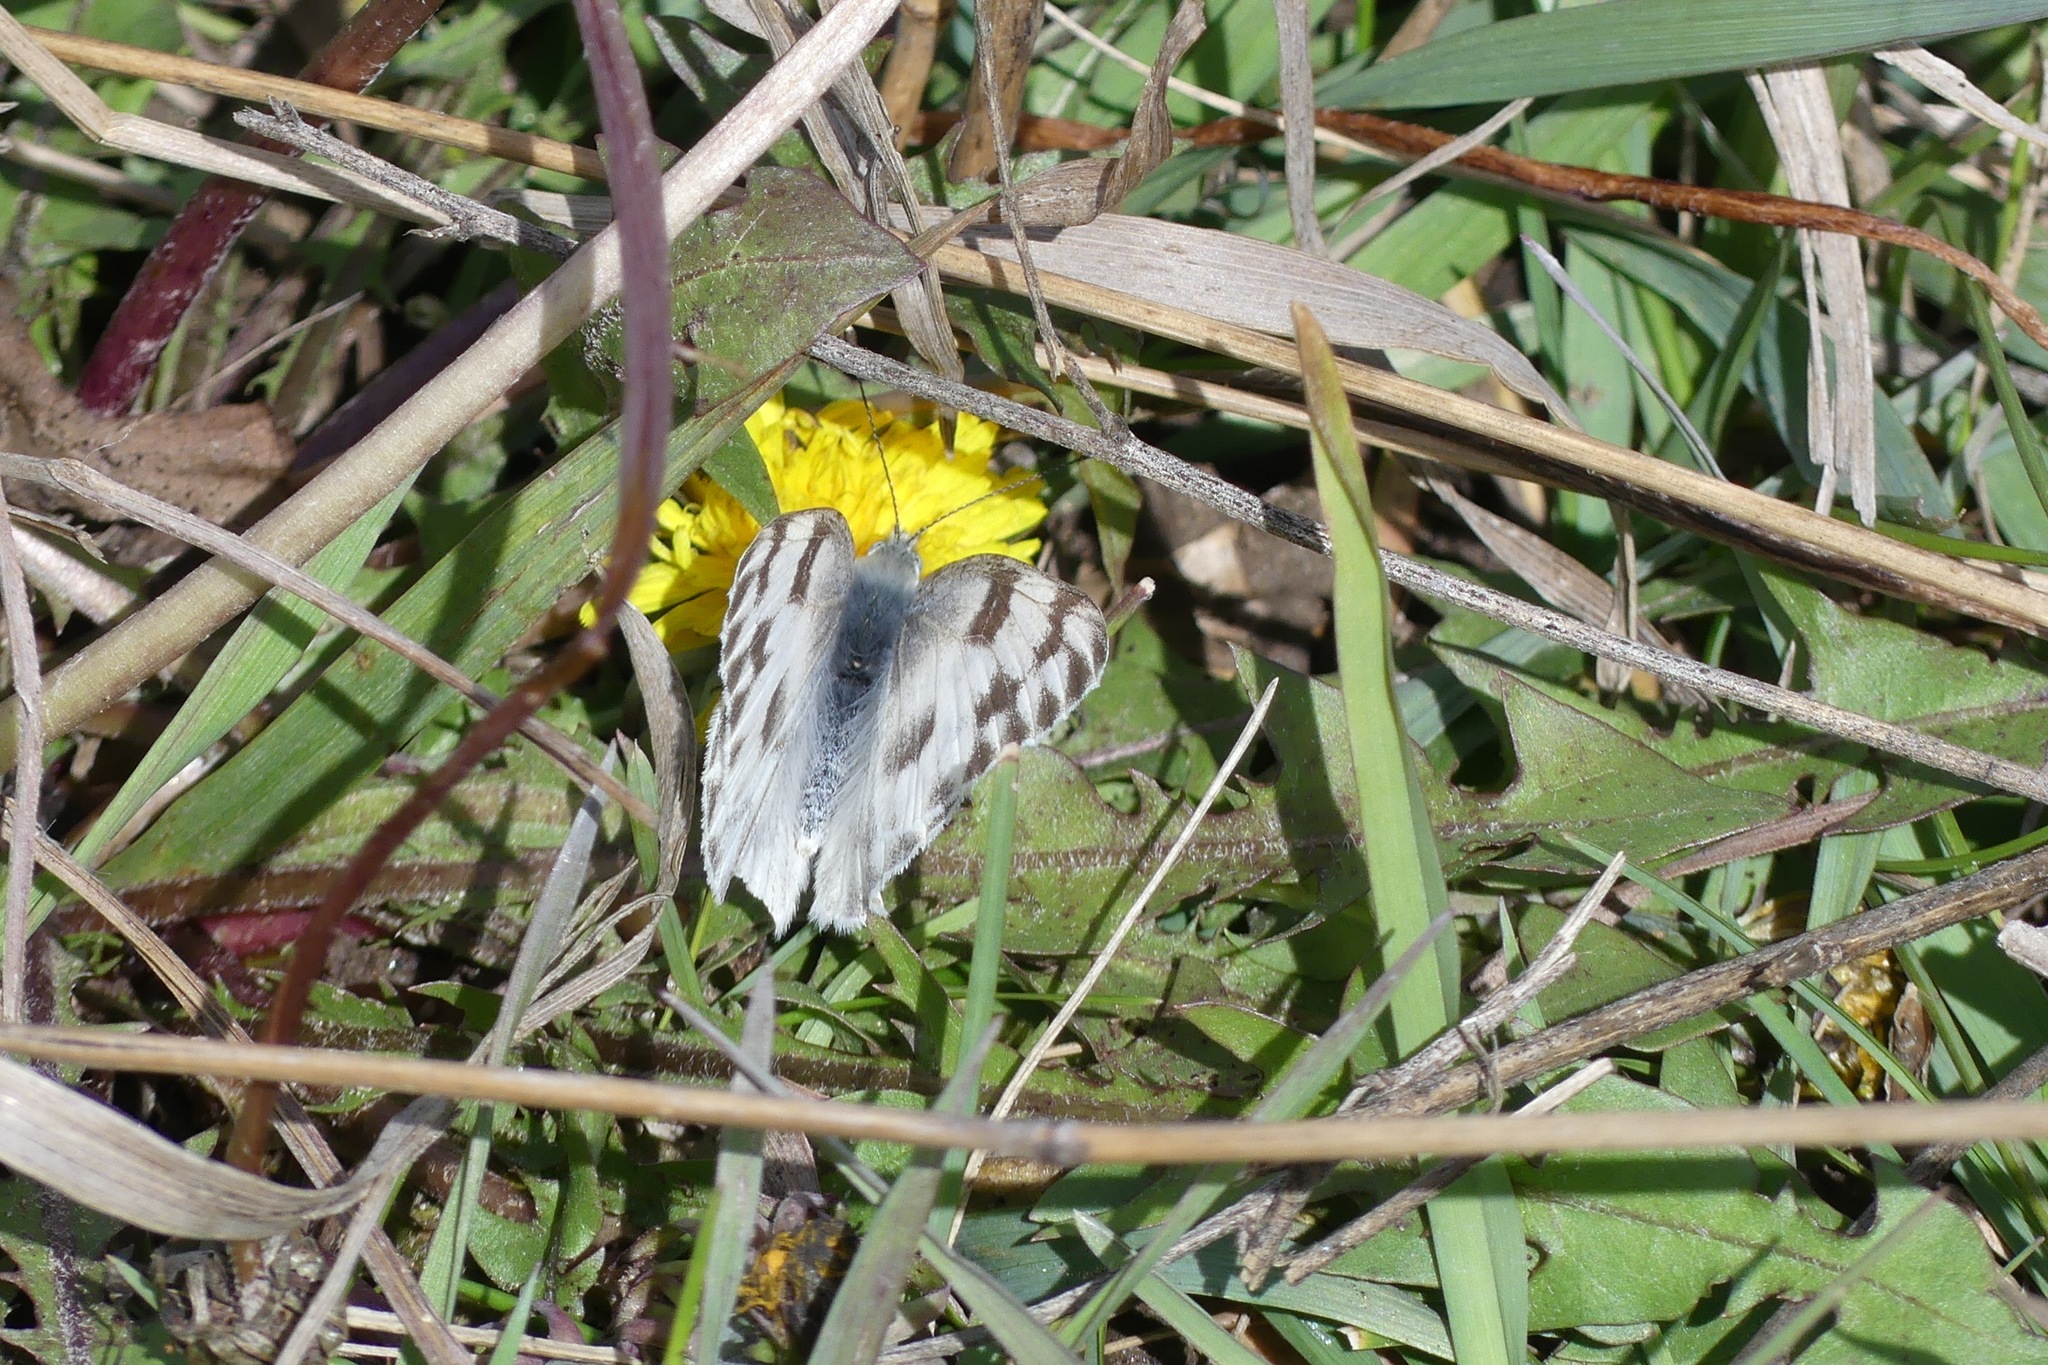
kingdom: Animalia
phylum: Arthropoda
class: Insecta
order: Lepidoptera
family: Pieridae
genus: Pontia
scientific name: Pontia protodice
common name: Checkered white
